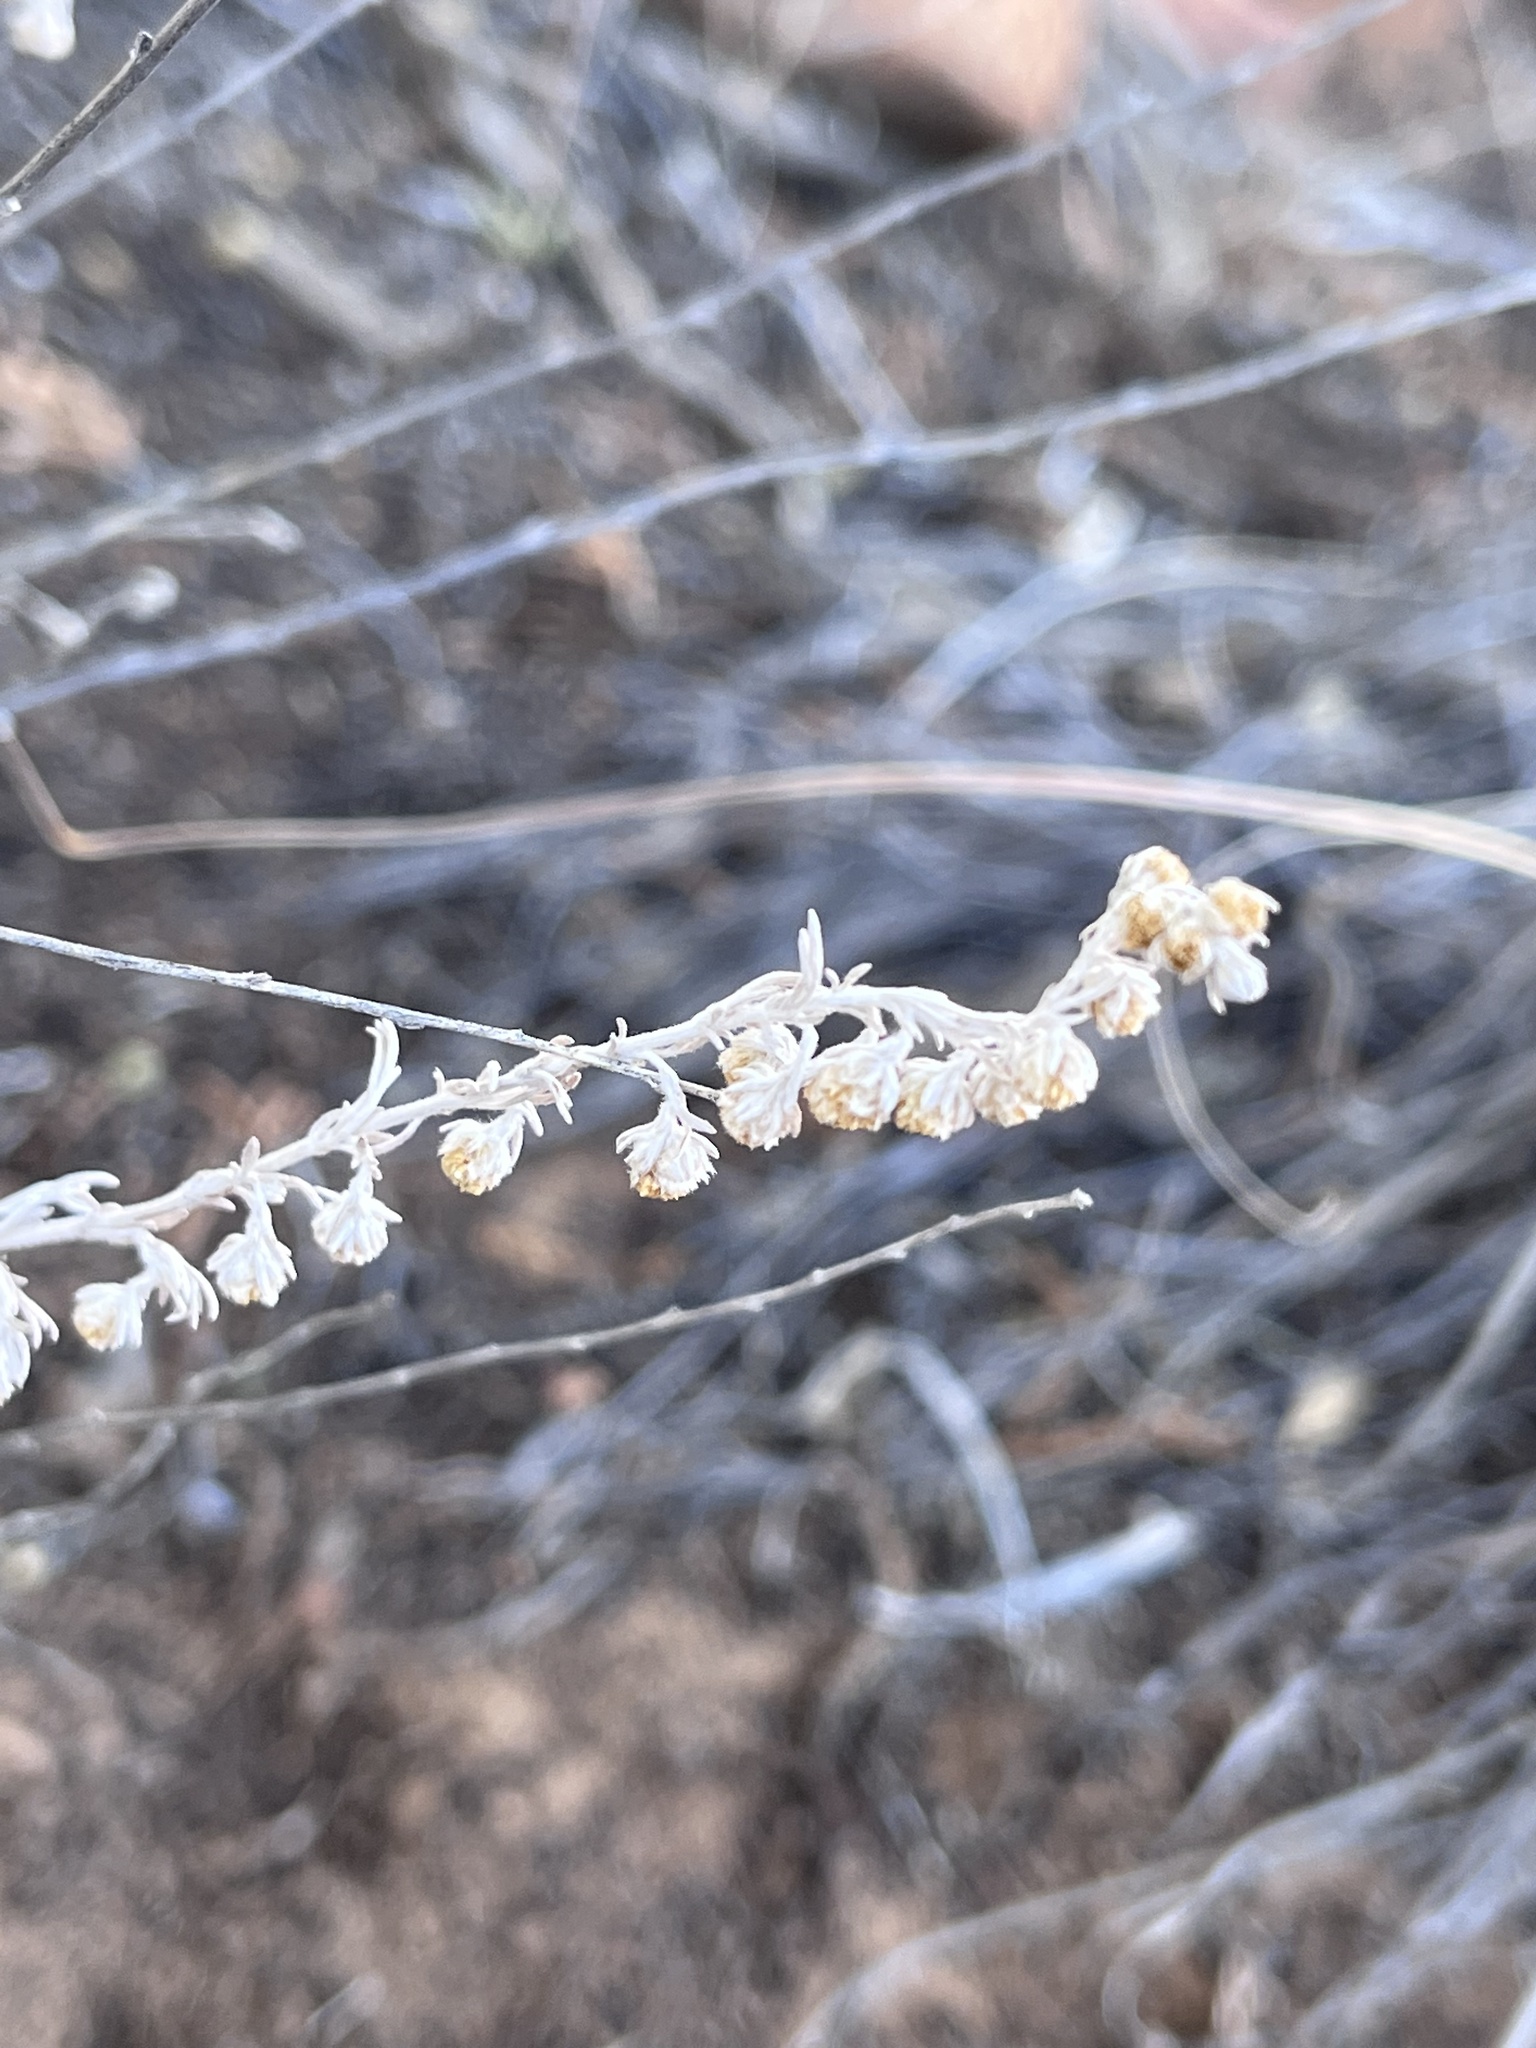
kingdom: Plantae
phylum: Tracheophyta
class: Magnoliopsida
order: Asterales
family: Asteraceae
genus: Artemisia
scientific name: Artemisia frigida
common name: Prairie sagewort
